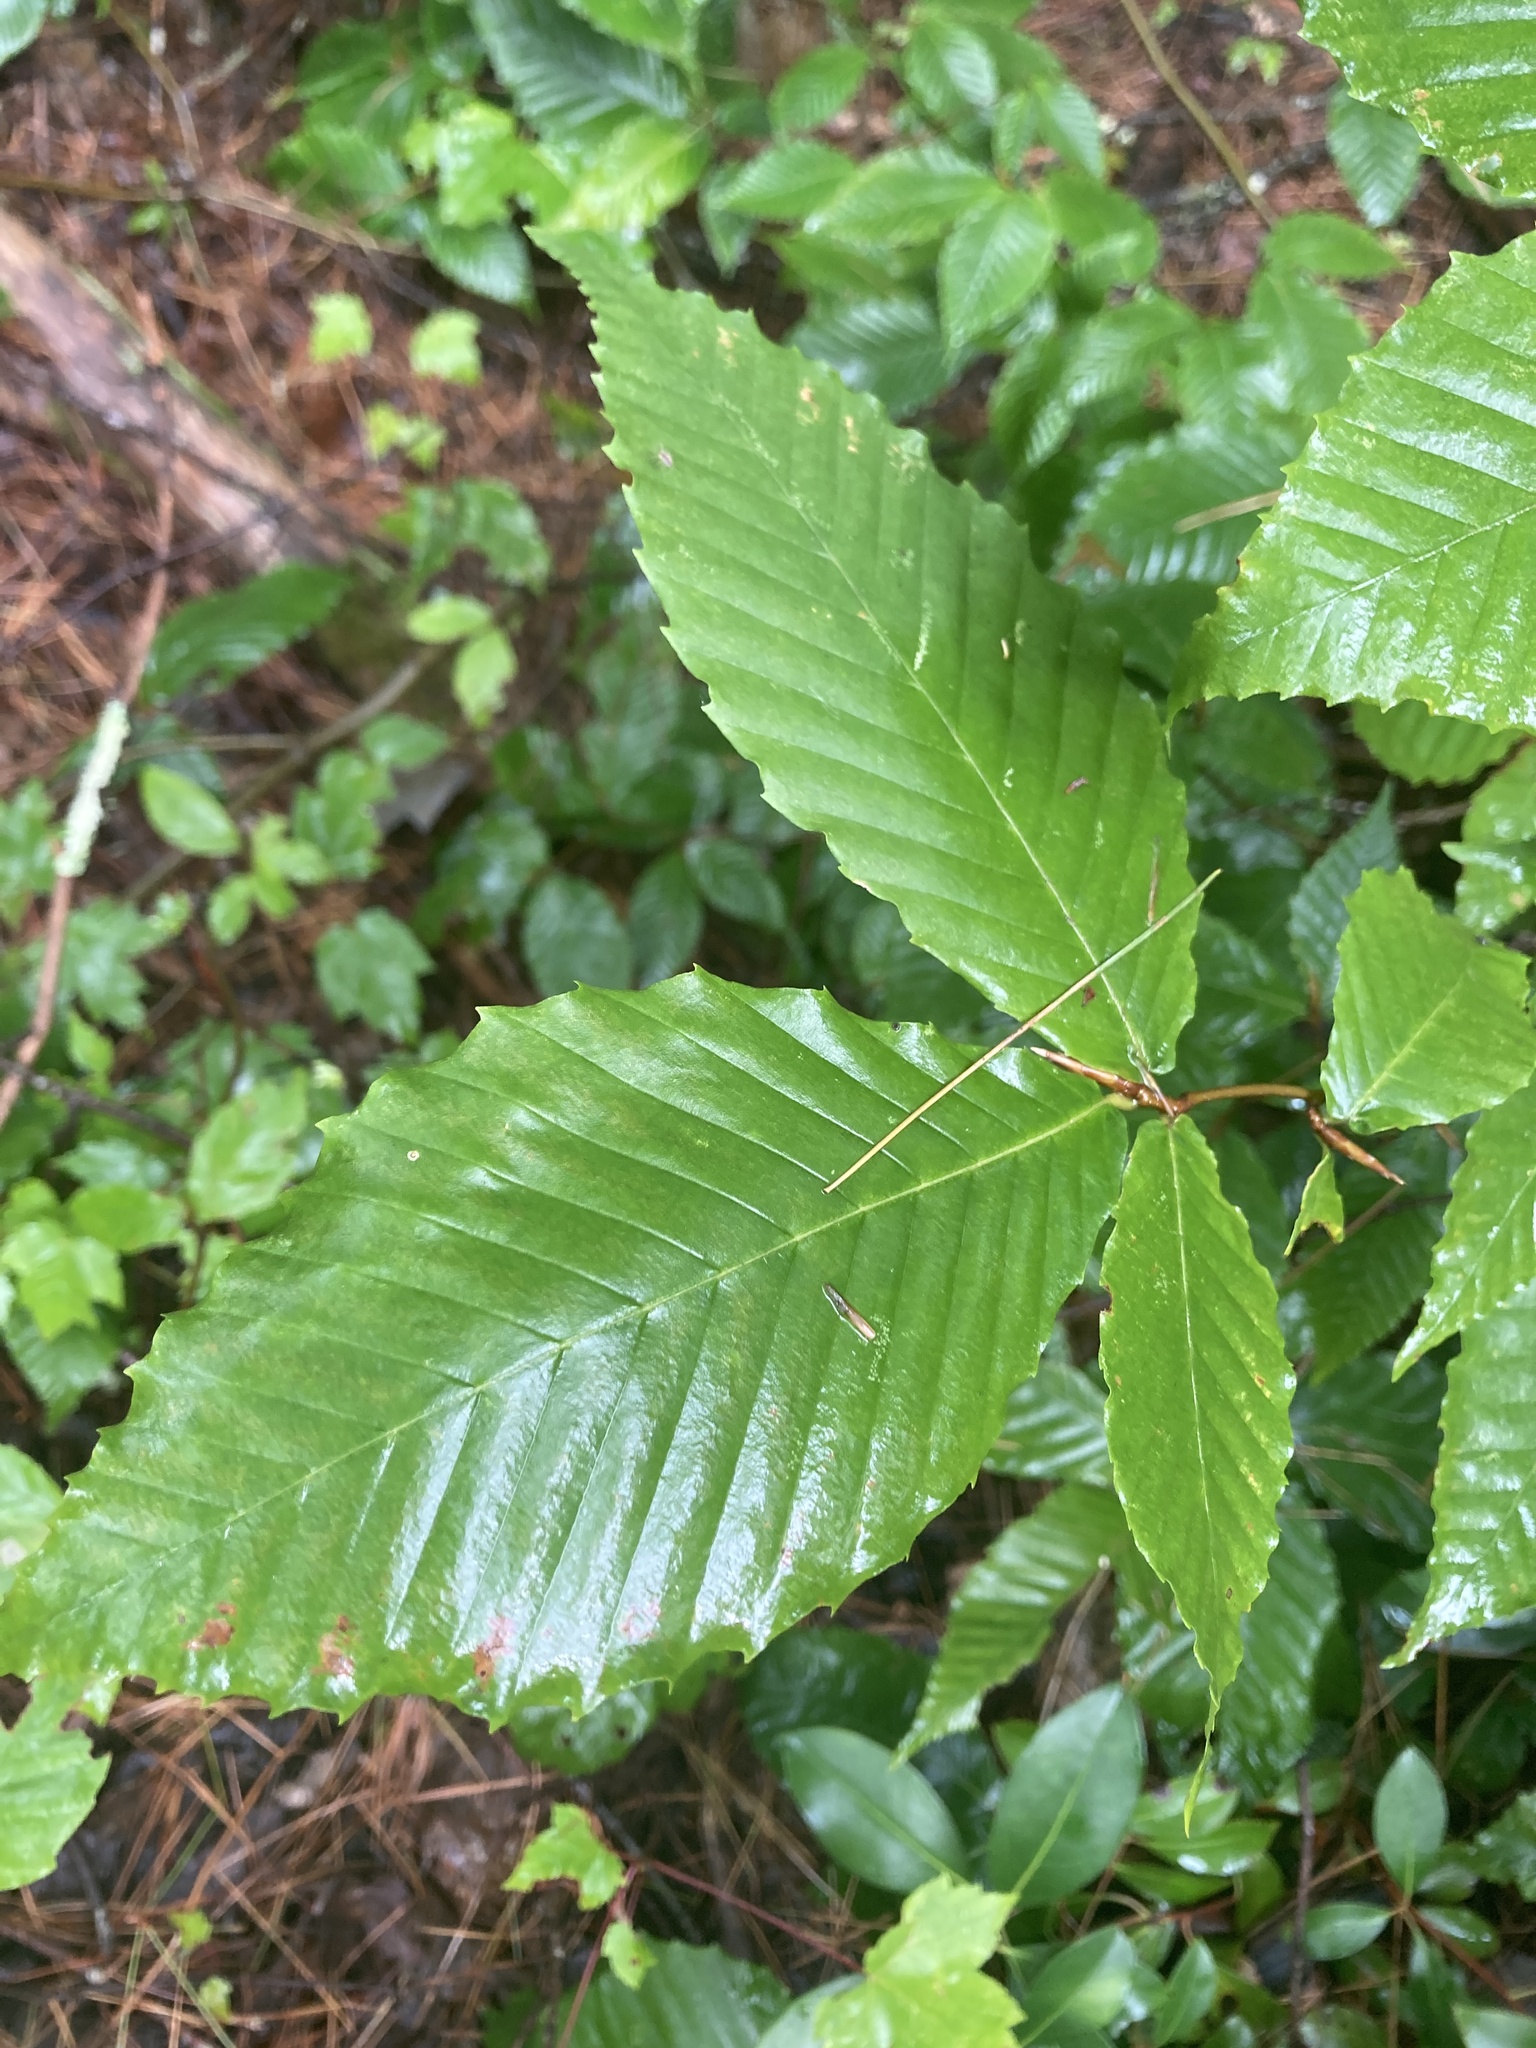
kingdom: Plantae
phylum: Tracheophyta
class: Magnoliopsida
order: Fagales
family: Fagaceae
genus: Fagus
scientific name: Fagus grandifolia
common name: American beech
